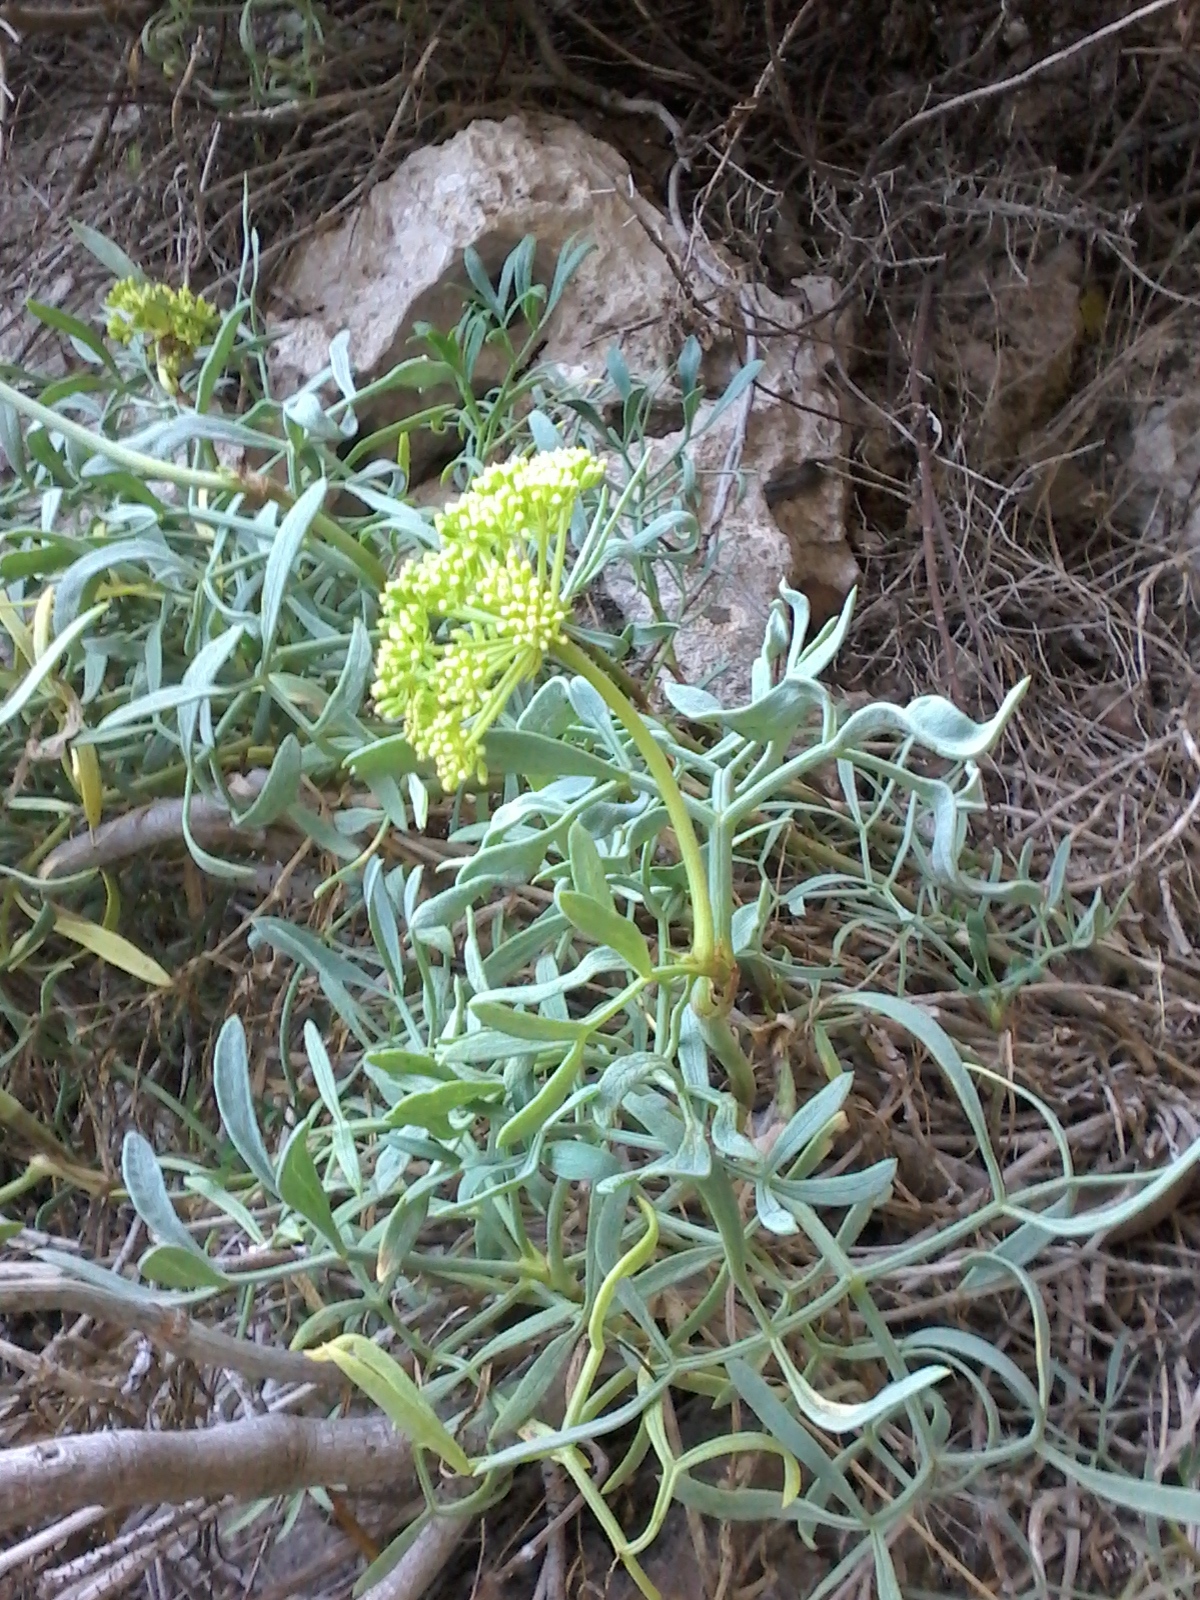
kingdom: Plantae
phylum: Tracheophyta
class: Magnoliopsida
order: Apiales
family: Apiaceae
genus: Crithmum
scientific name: Crithmum maritimum
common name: Rock samphire
